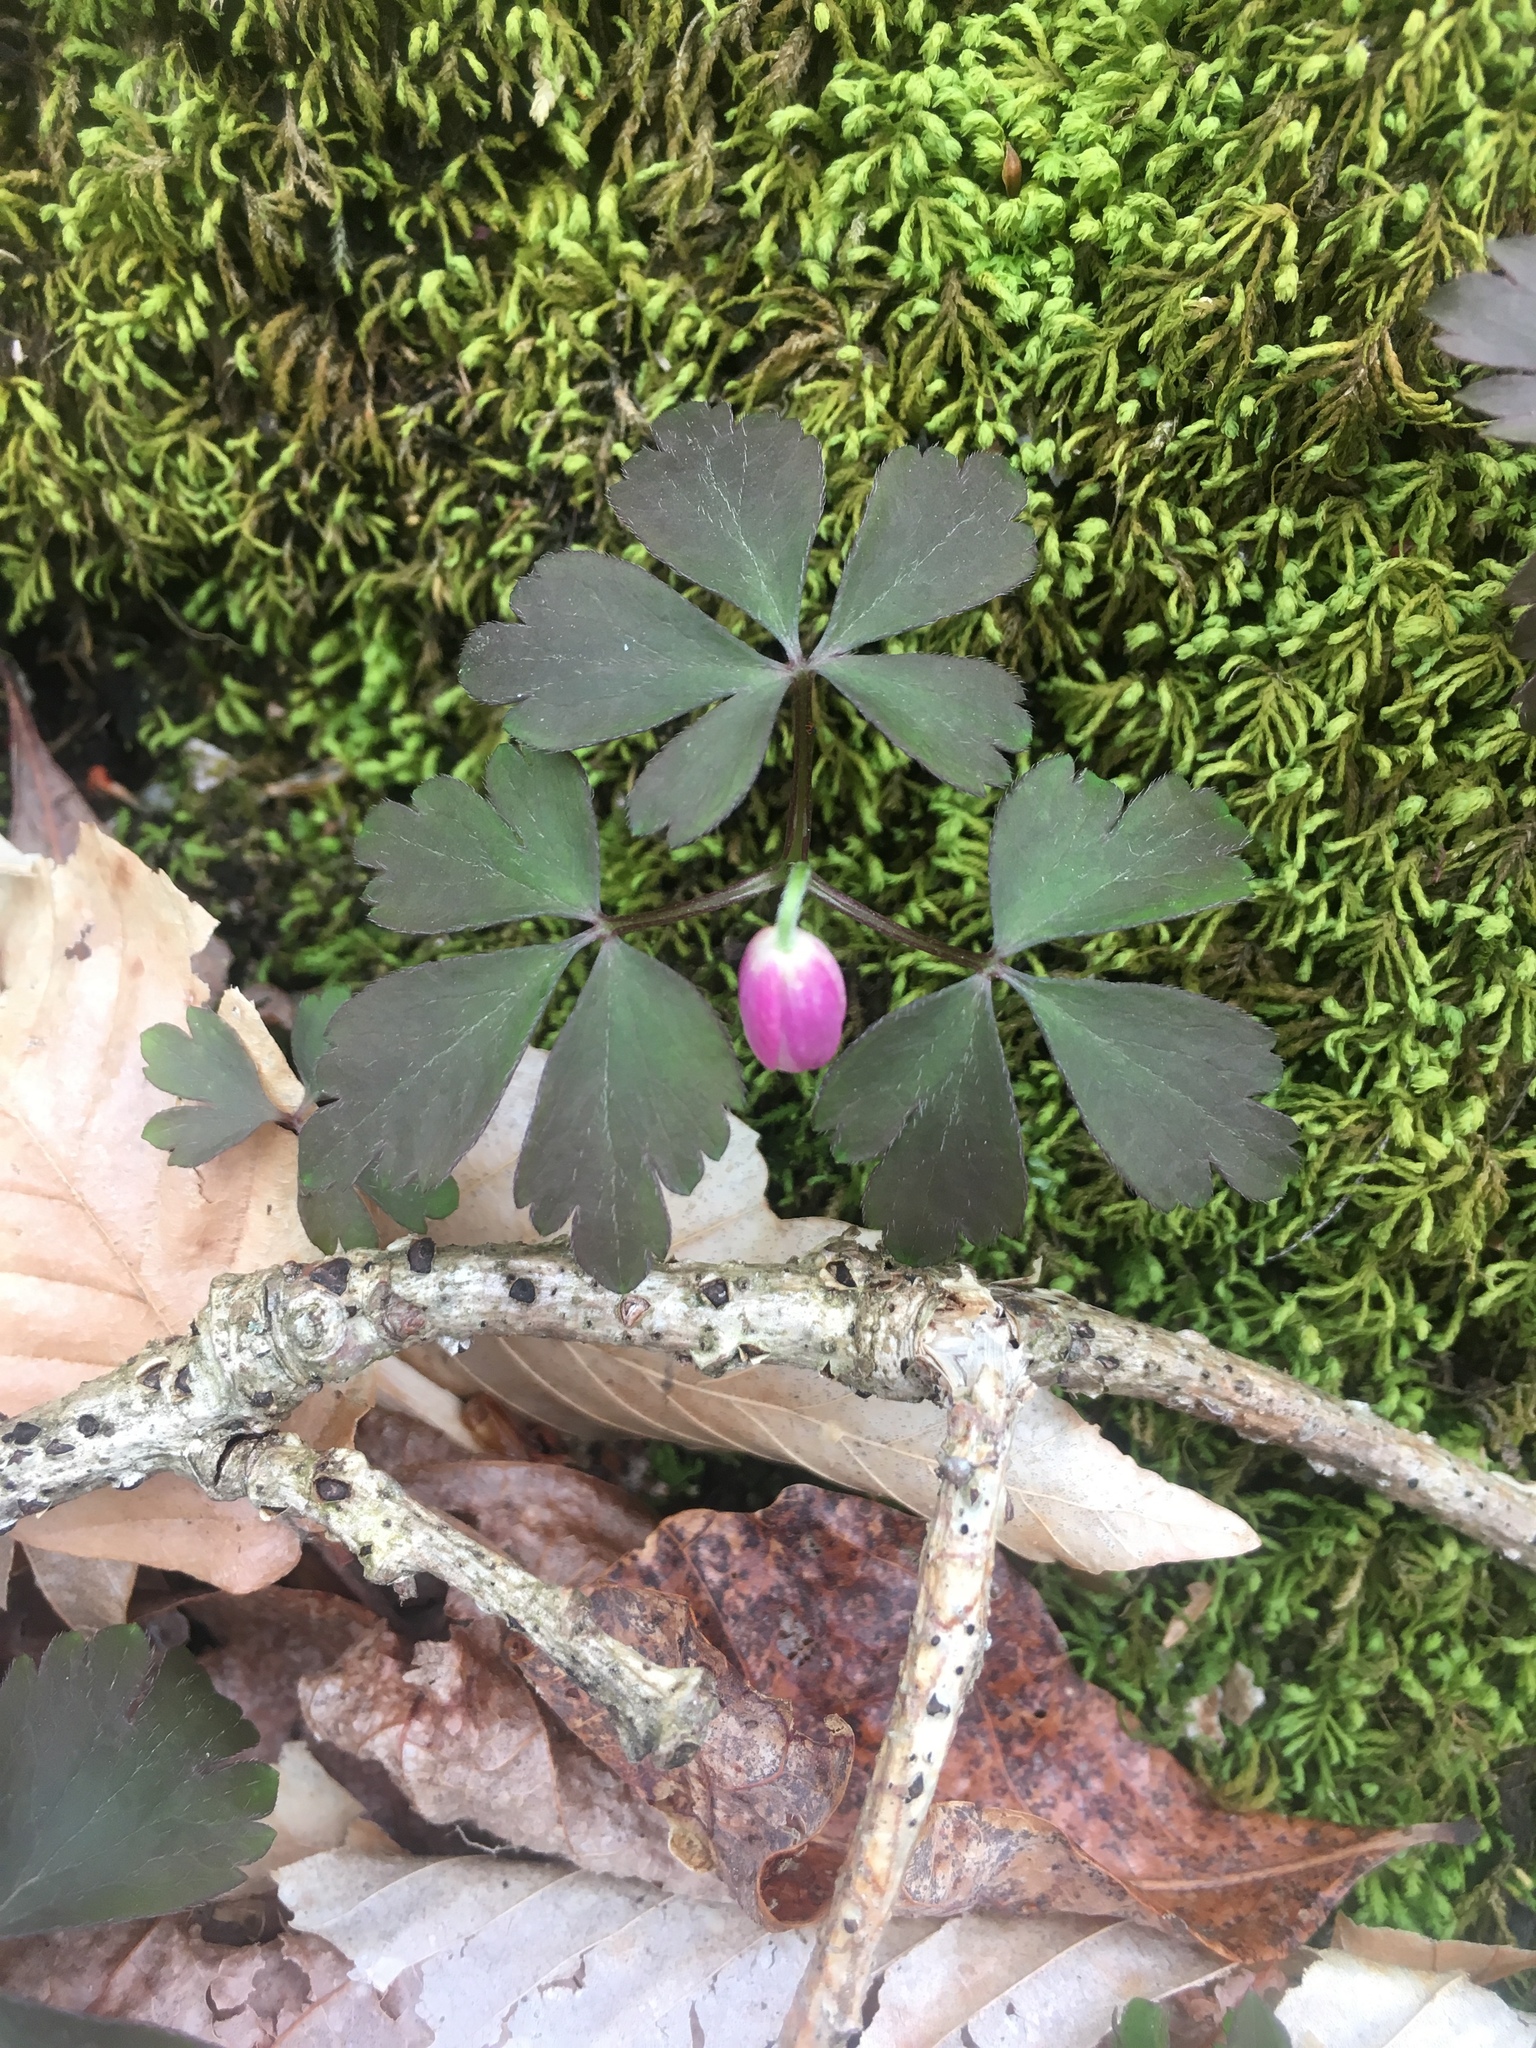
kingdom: Plantae
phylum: Tracheophyta
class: Magnoliopsida
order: Ranunculales
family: Ranunculaceae
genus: Anemone
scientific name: Anemone quinquefolia
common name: Wood anemone
